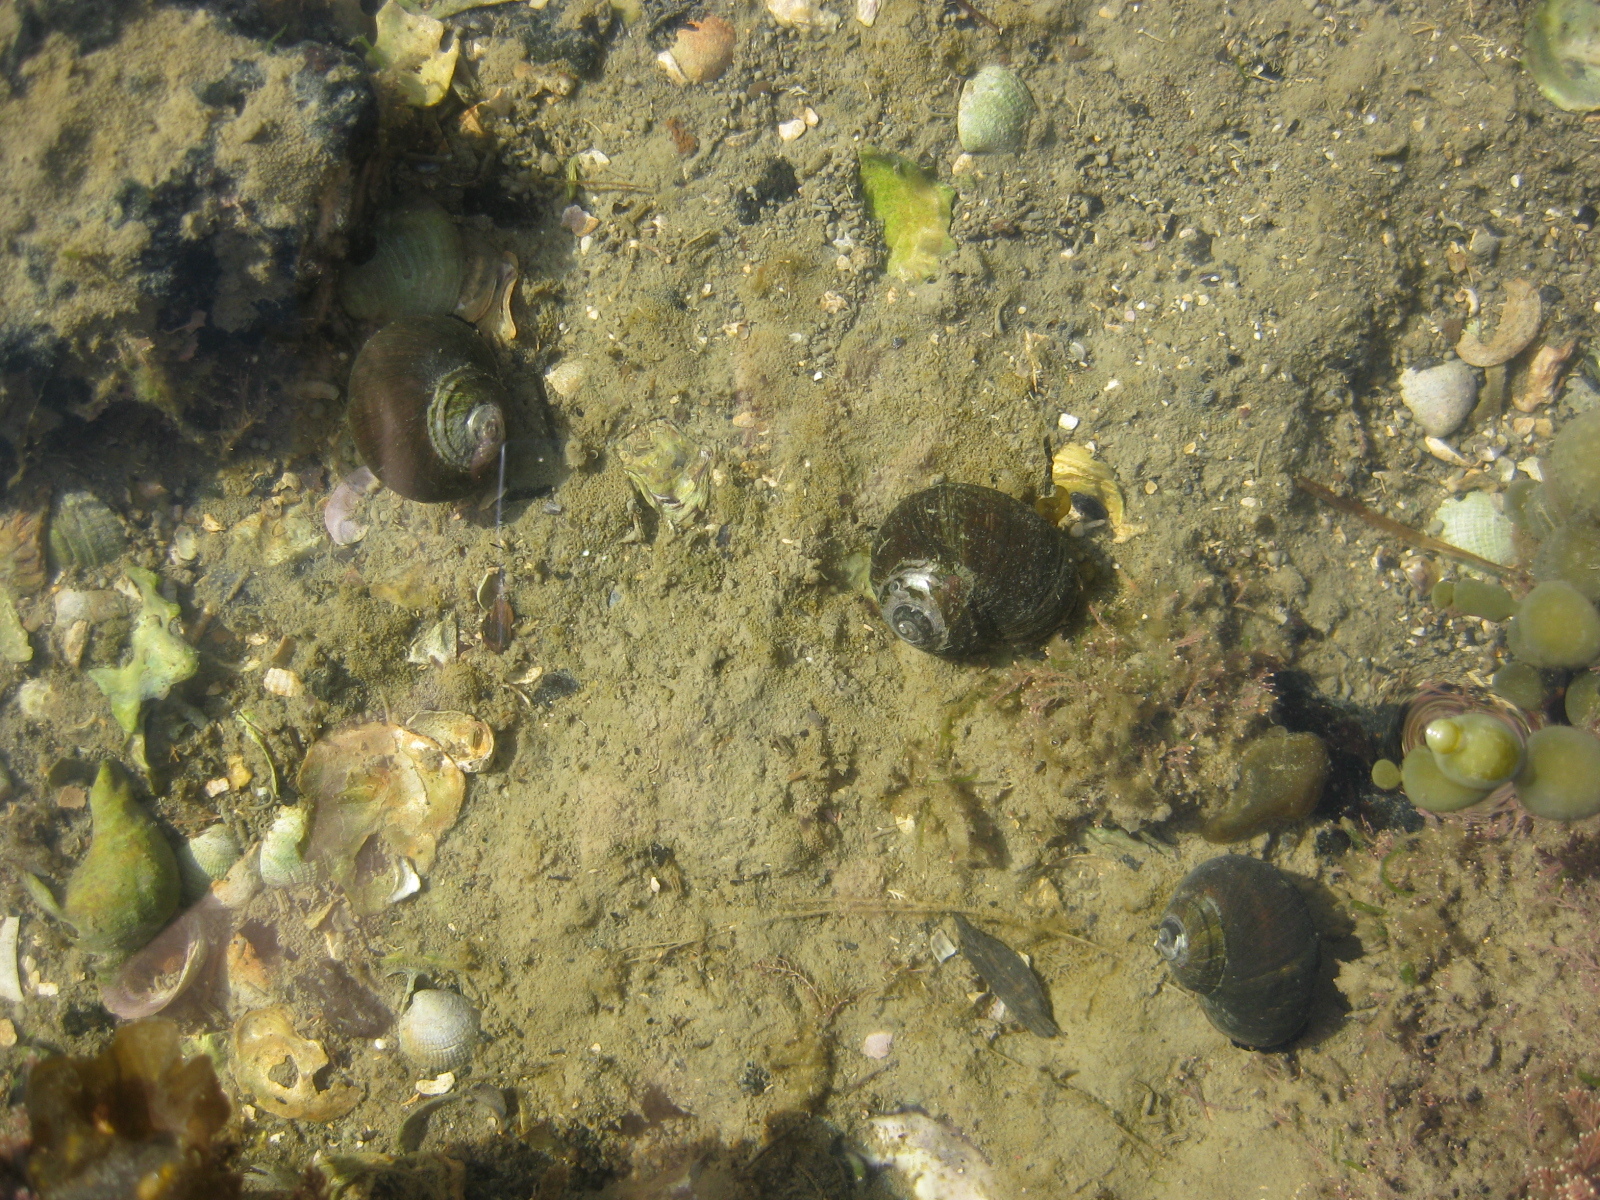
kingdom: Animalia
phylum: Mollusca
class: Gastropoda
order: Trochida
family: Turbinidae
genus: Lunella
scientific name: Lunella smaragda
